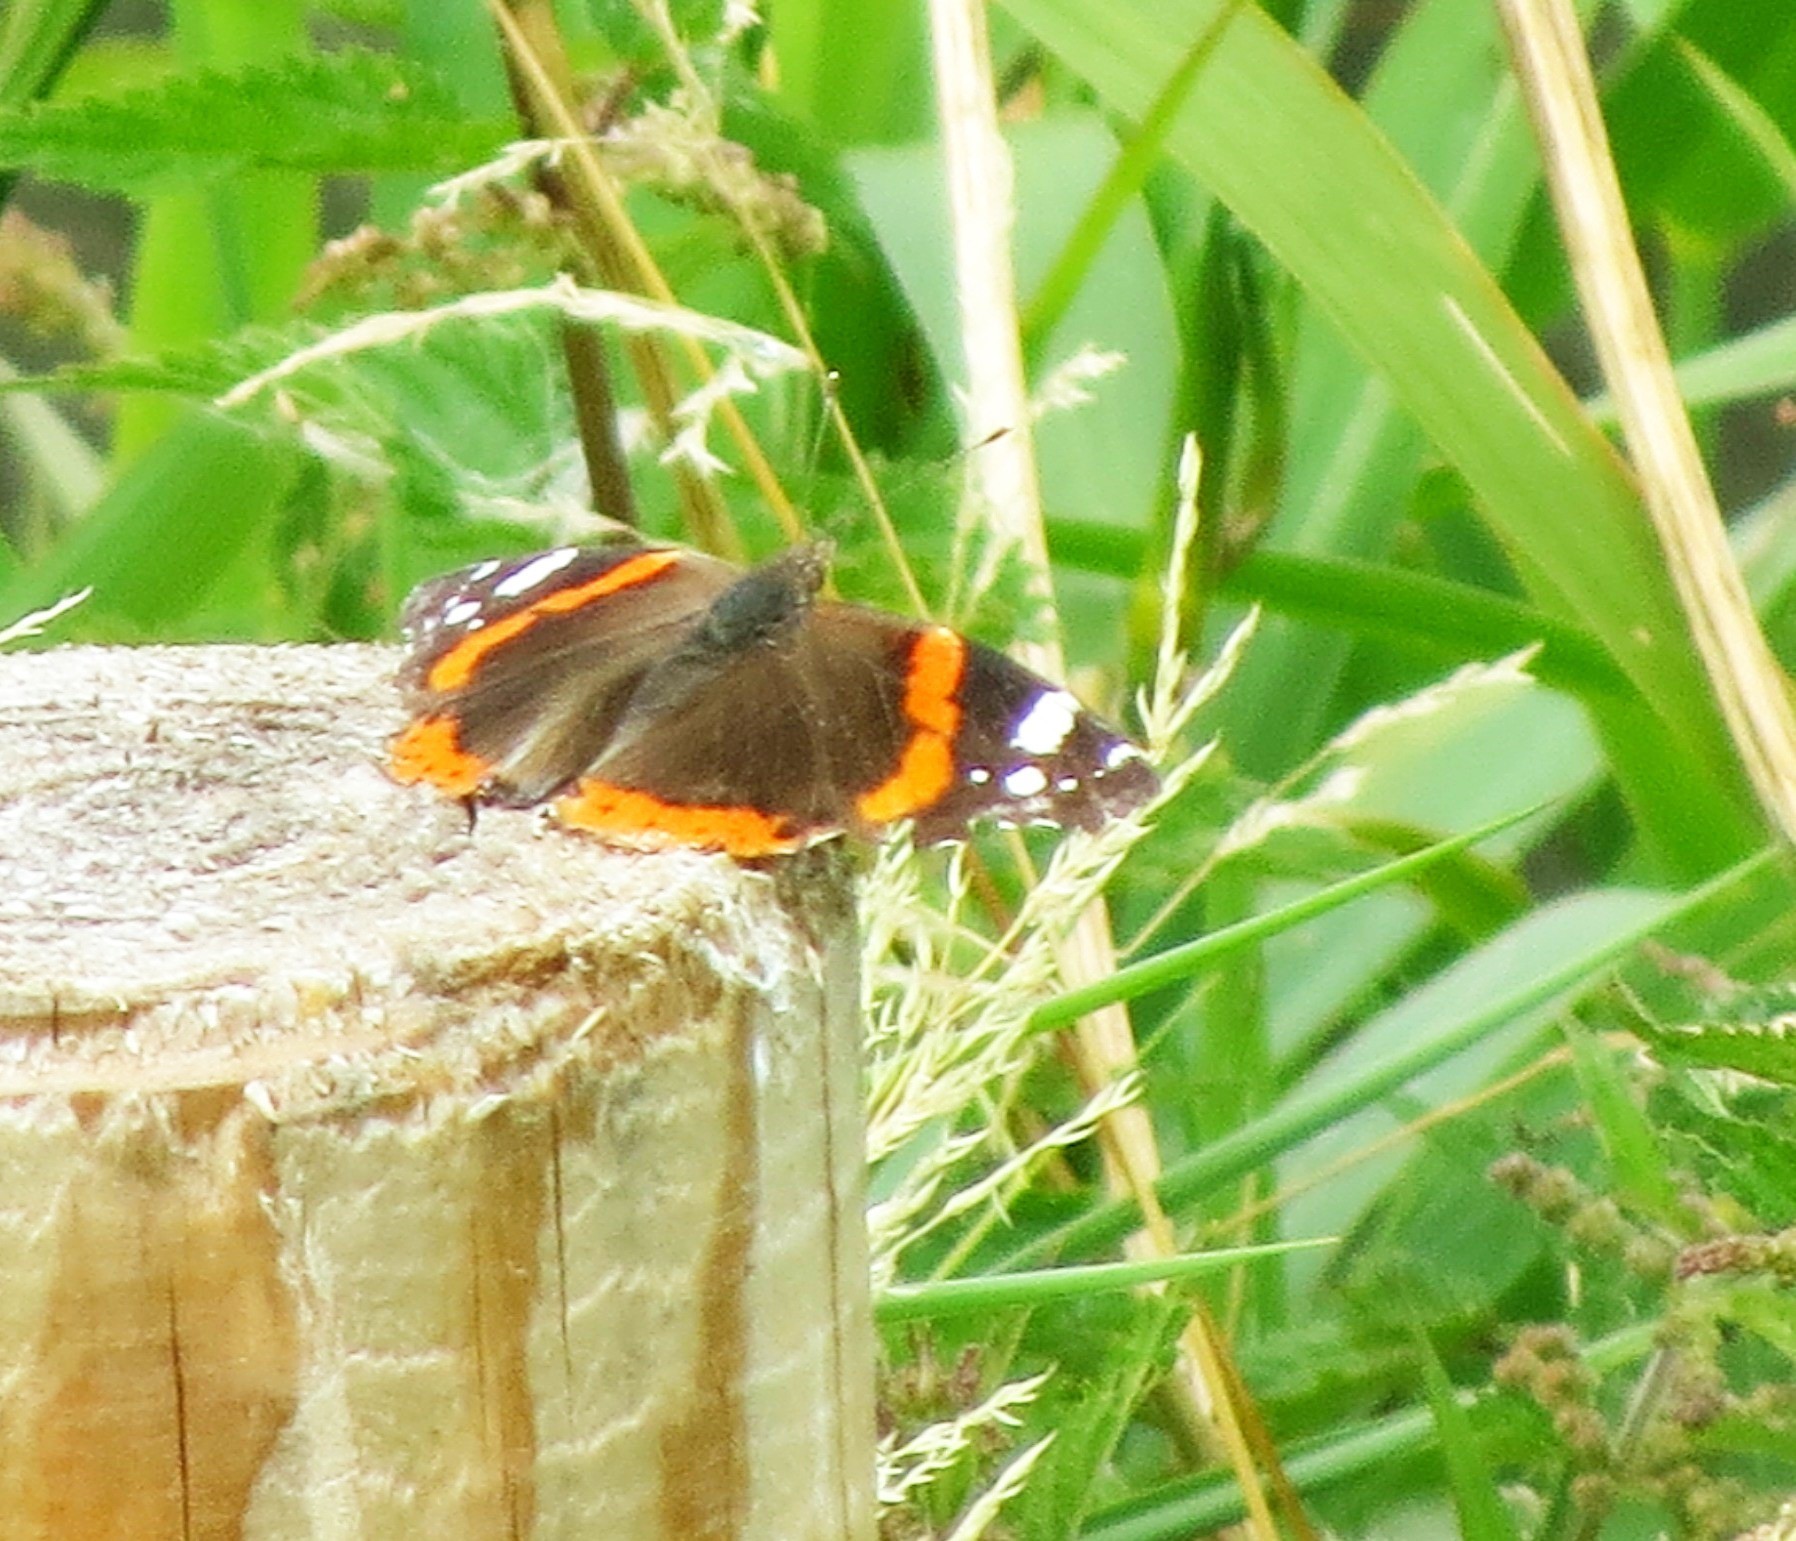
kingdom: Animalia
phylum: Arthropoda
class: Insecta
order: Lepidoptera
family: Nymphalidae
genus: Vanessa
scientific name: Vanessa atalanta
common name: Red admiral
